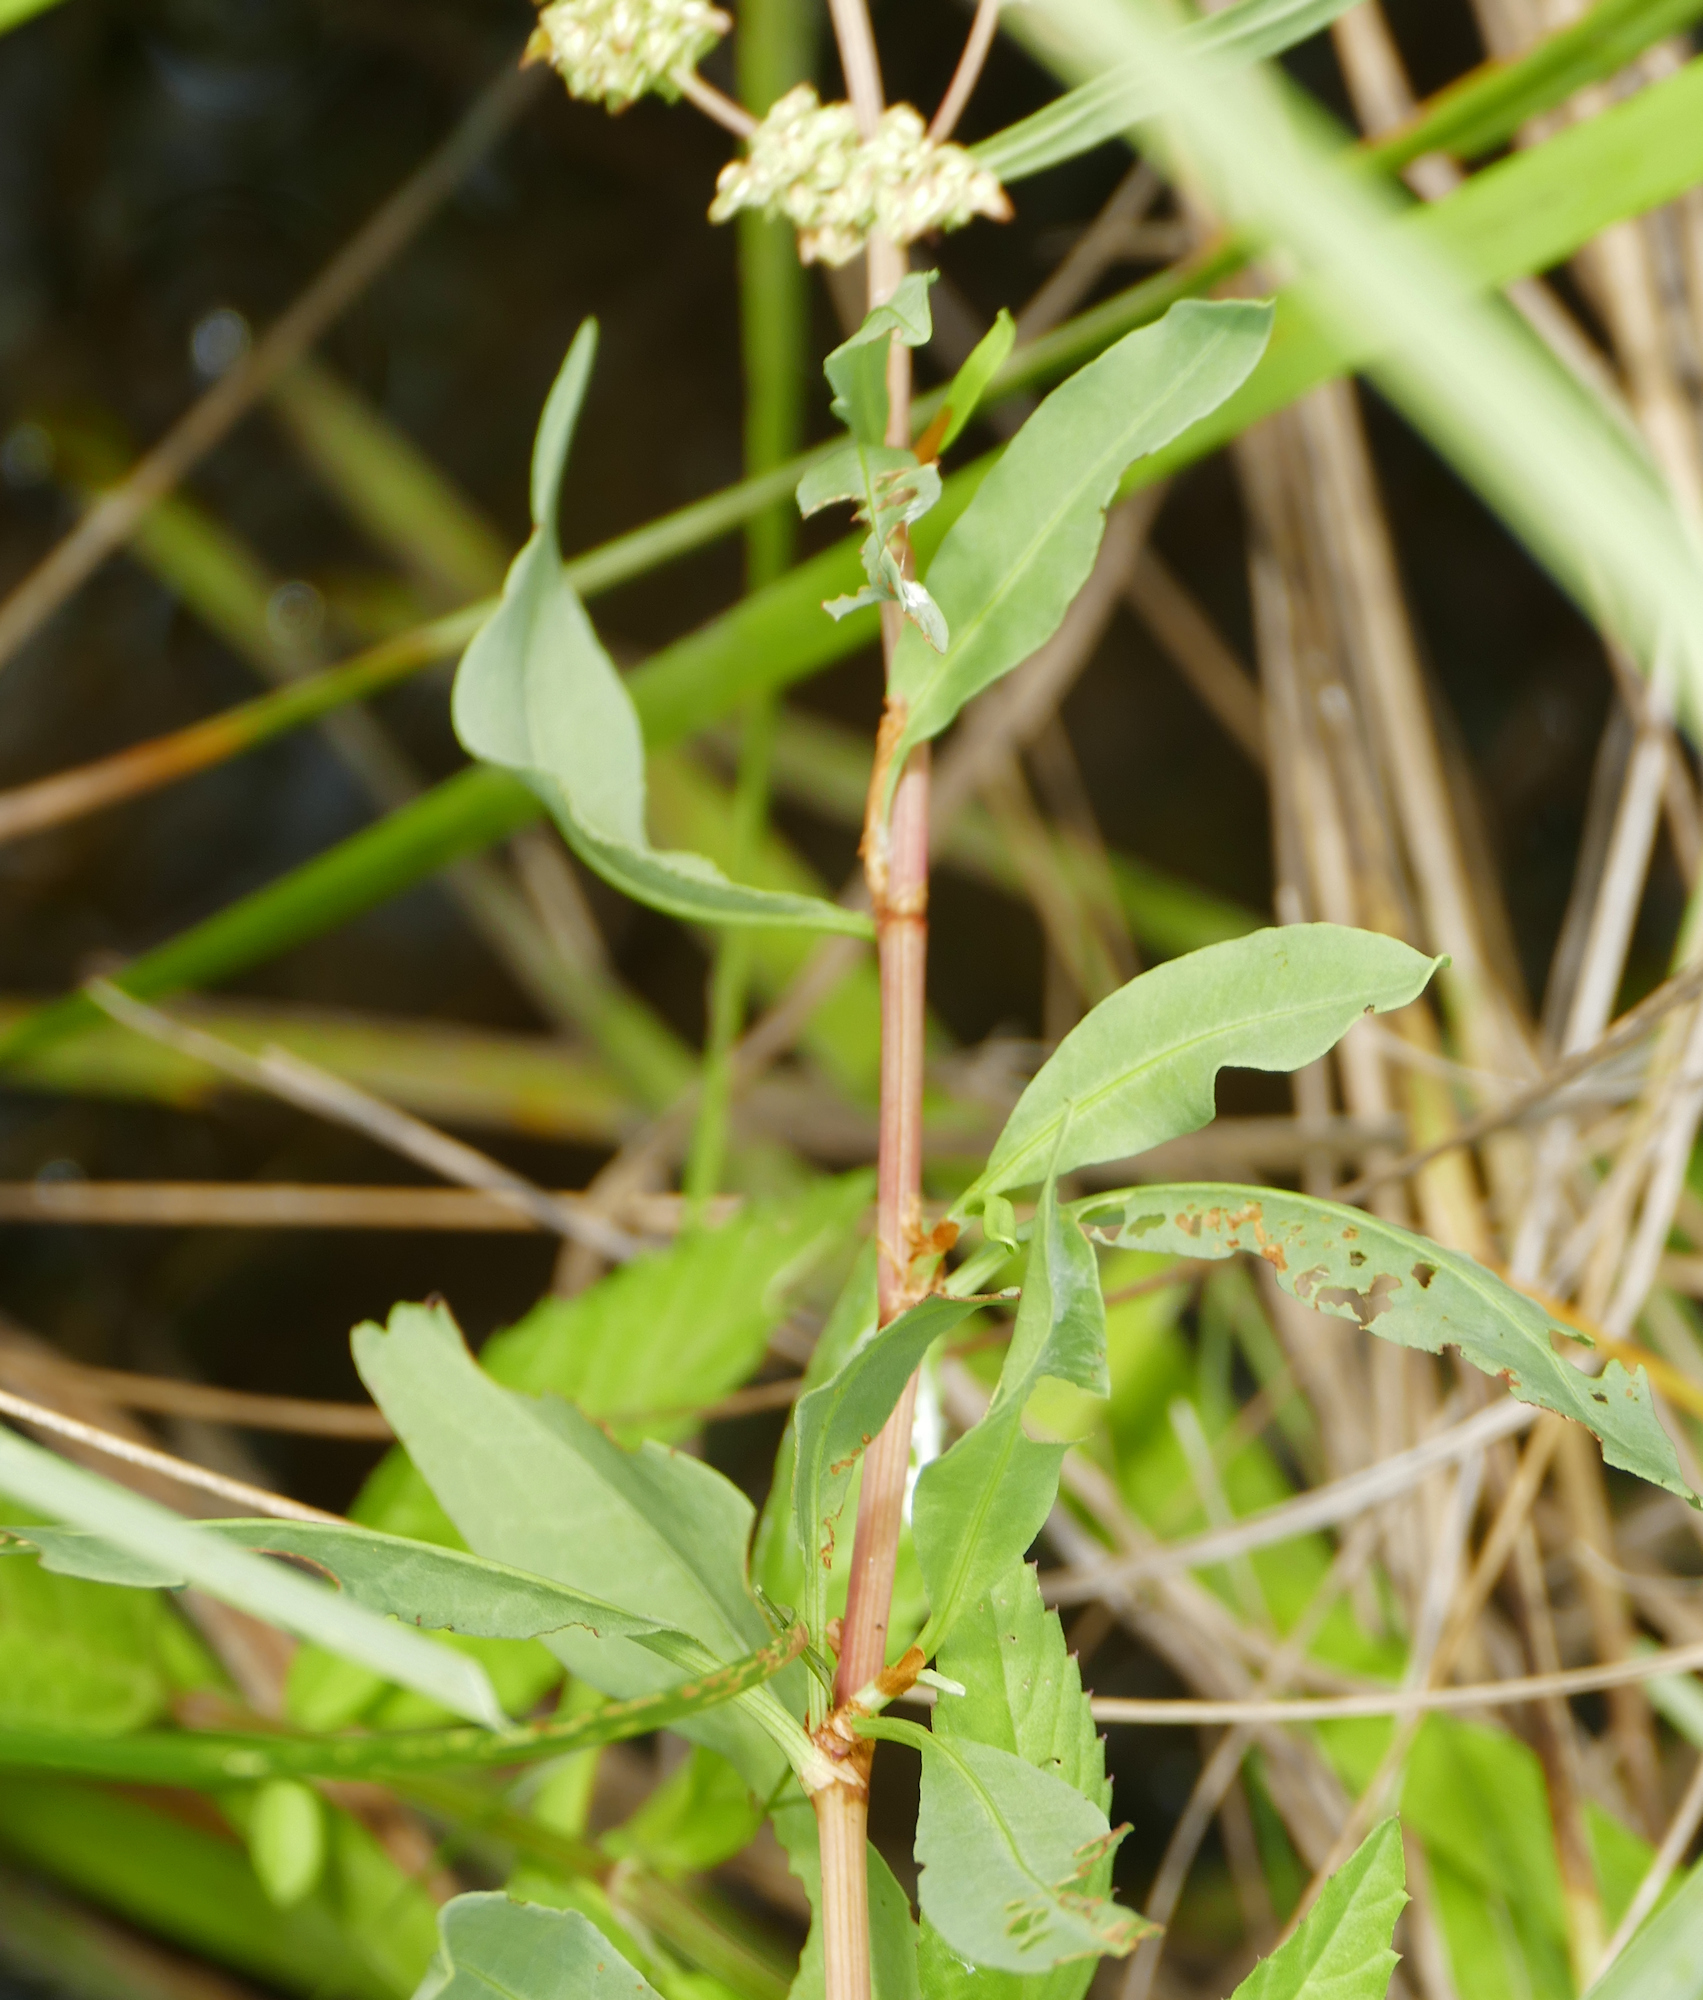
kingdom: Plantae
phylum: Tracheophyta
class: Magnoliopsida
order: Caryophyllales
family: Polygonaceae
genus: Rumex
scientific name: Rumex chrysocarpos
